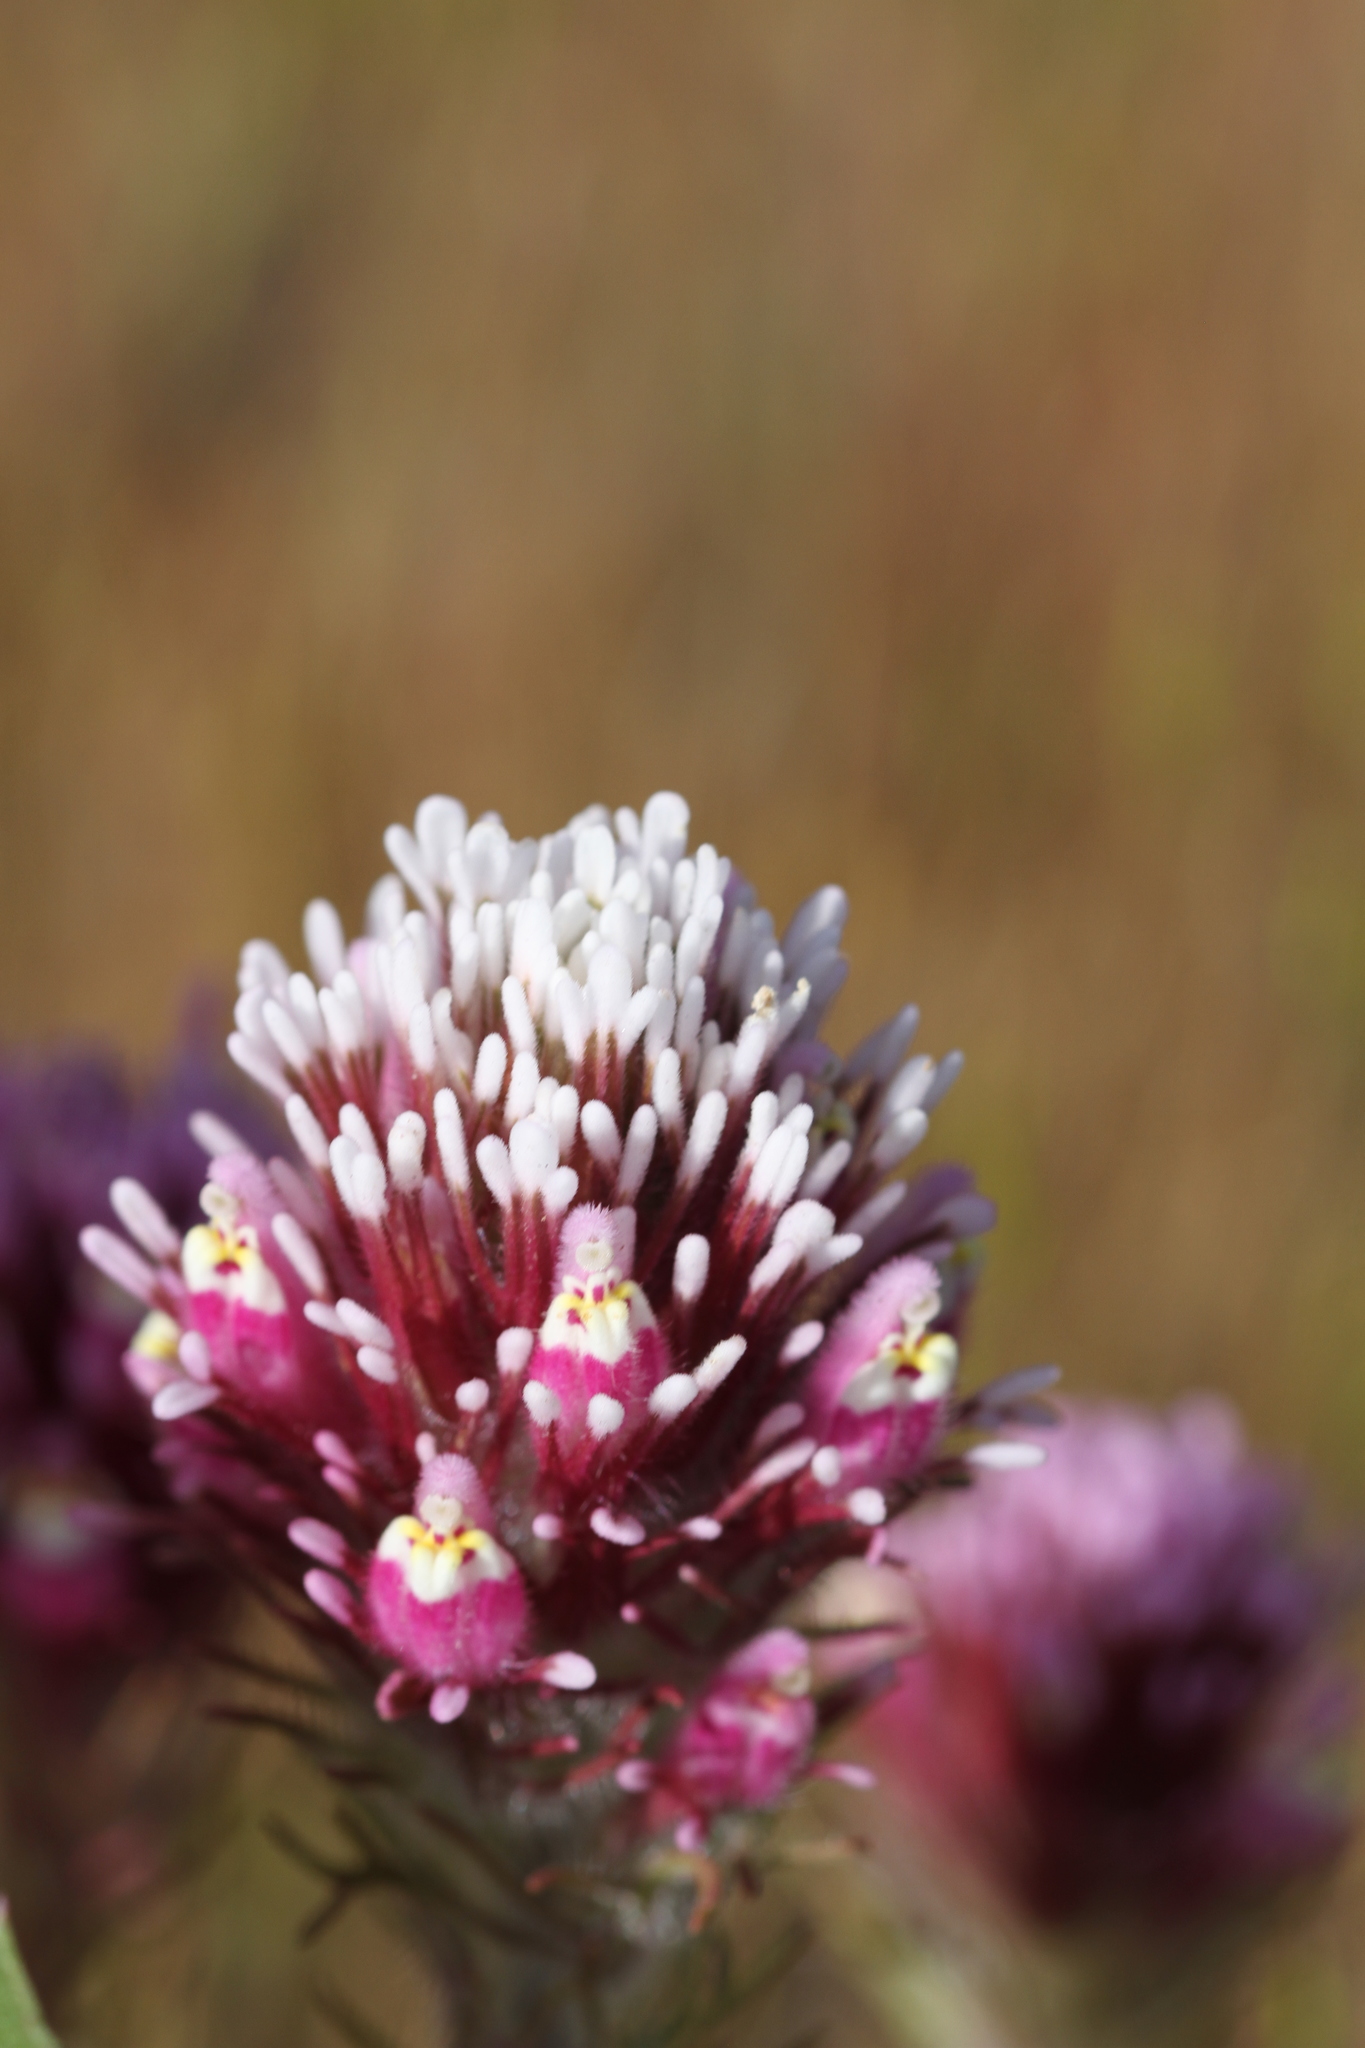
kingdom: Plantae
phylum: Tracheophyta
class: Magnoliopsida
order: Lamiales
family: Orobanchaceae
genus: Castilleja
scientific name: Castilleja exserta
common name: Purple owl-clover
